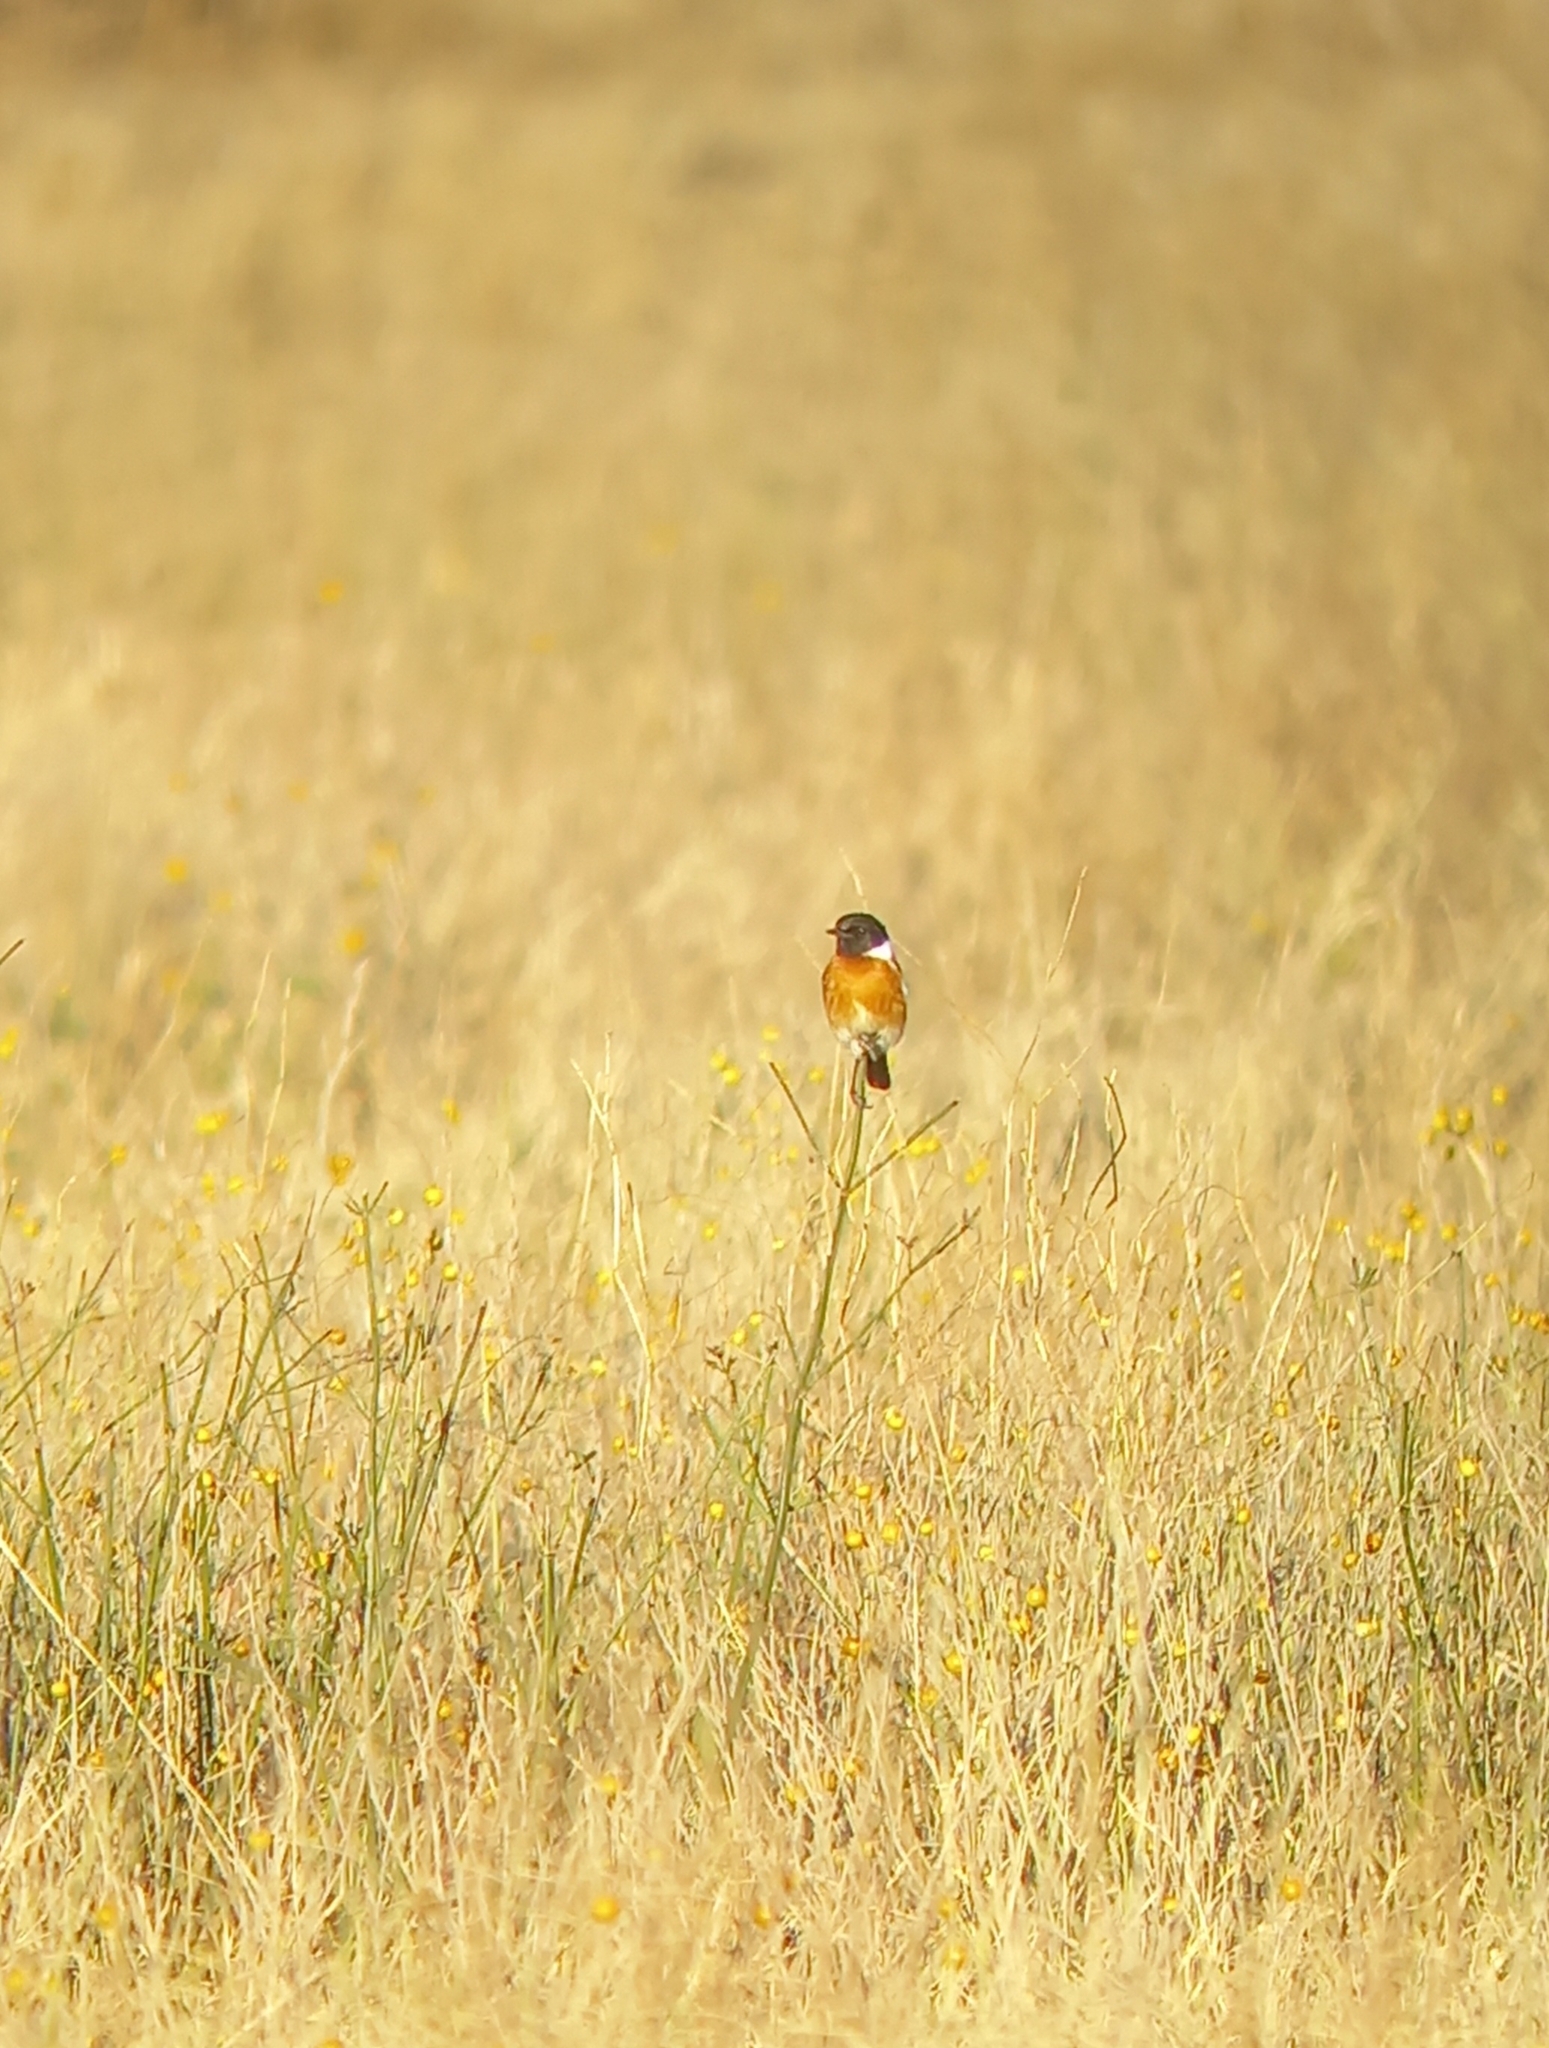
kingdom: Animalia
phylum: Chordata
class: Aves
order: Passeriformes
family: Muscicapidae
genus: Saxicola
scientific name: Saxicola torquatus
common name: African stonechat
